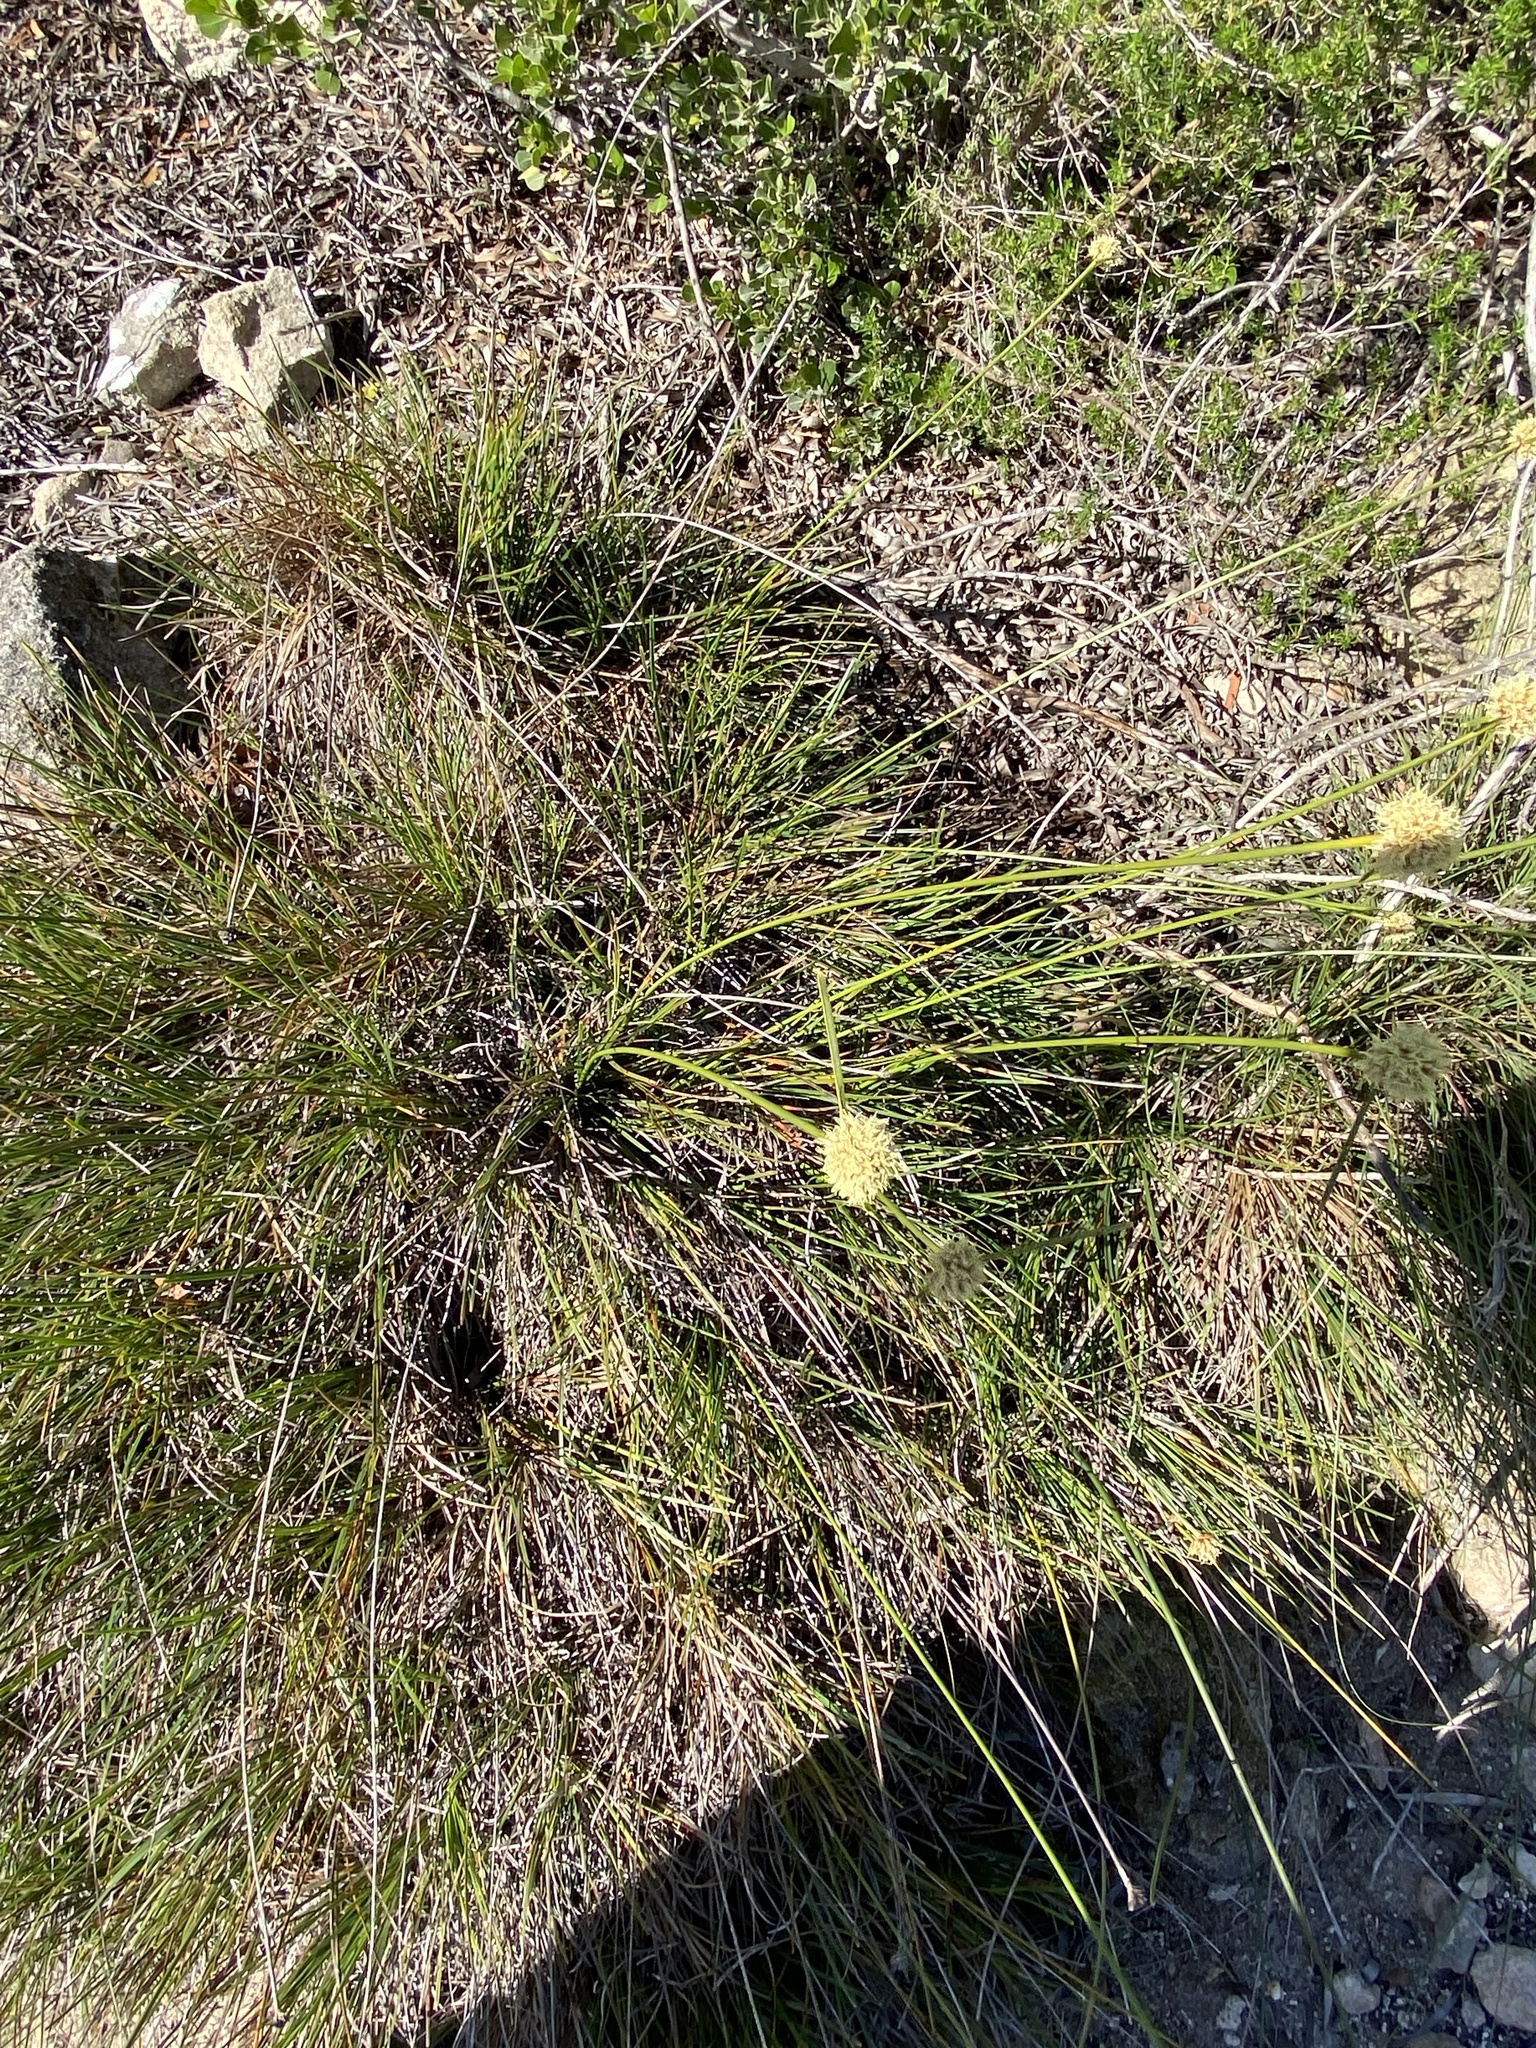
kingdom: Plantae
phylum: Tracheophyta
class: Liliopsida
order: Poales
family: Cyperaceae
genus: Ficinia
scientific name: Ficinia praemorsa
